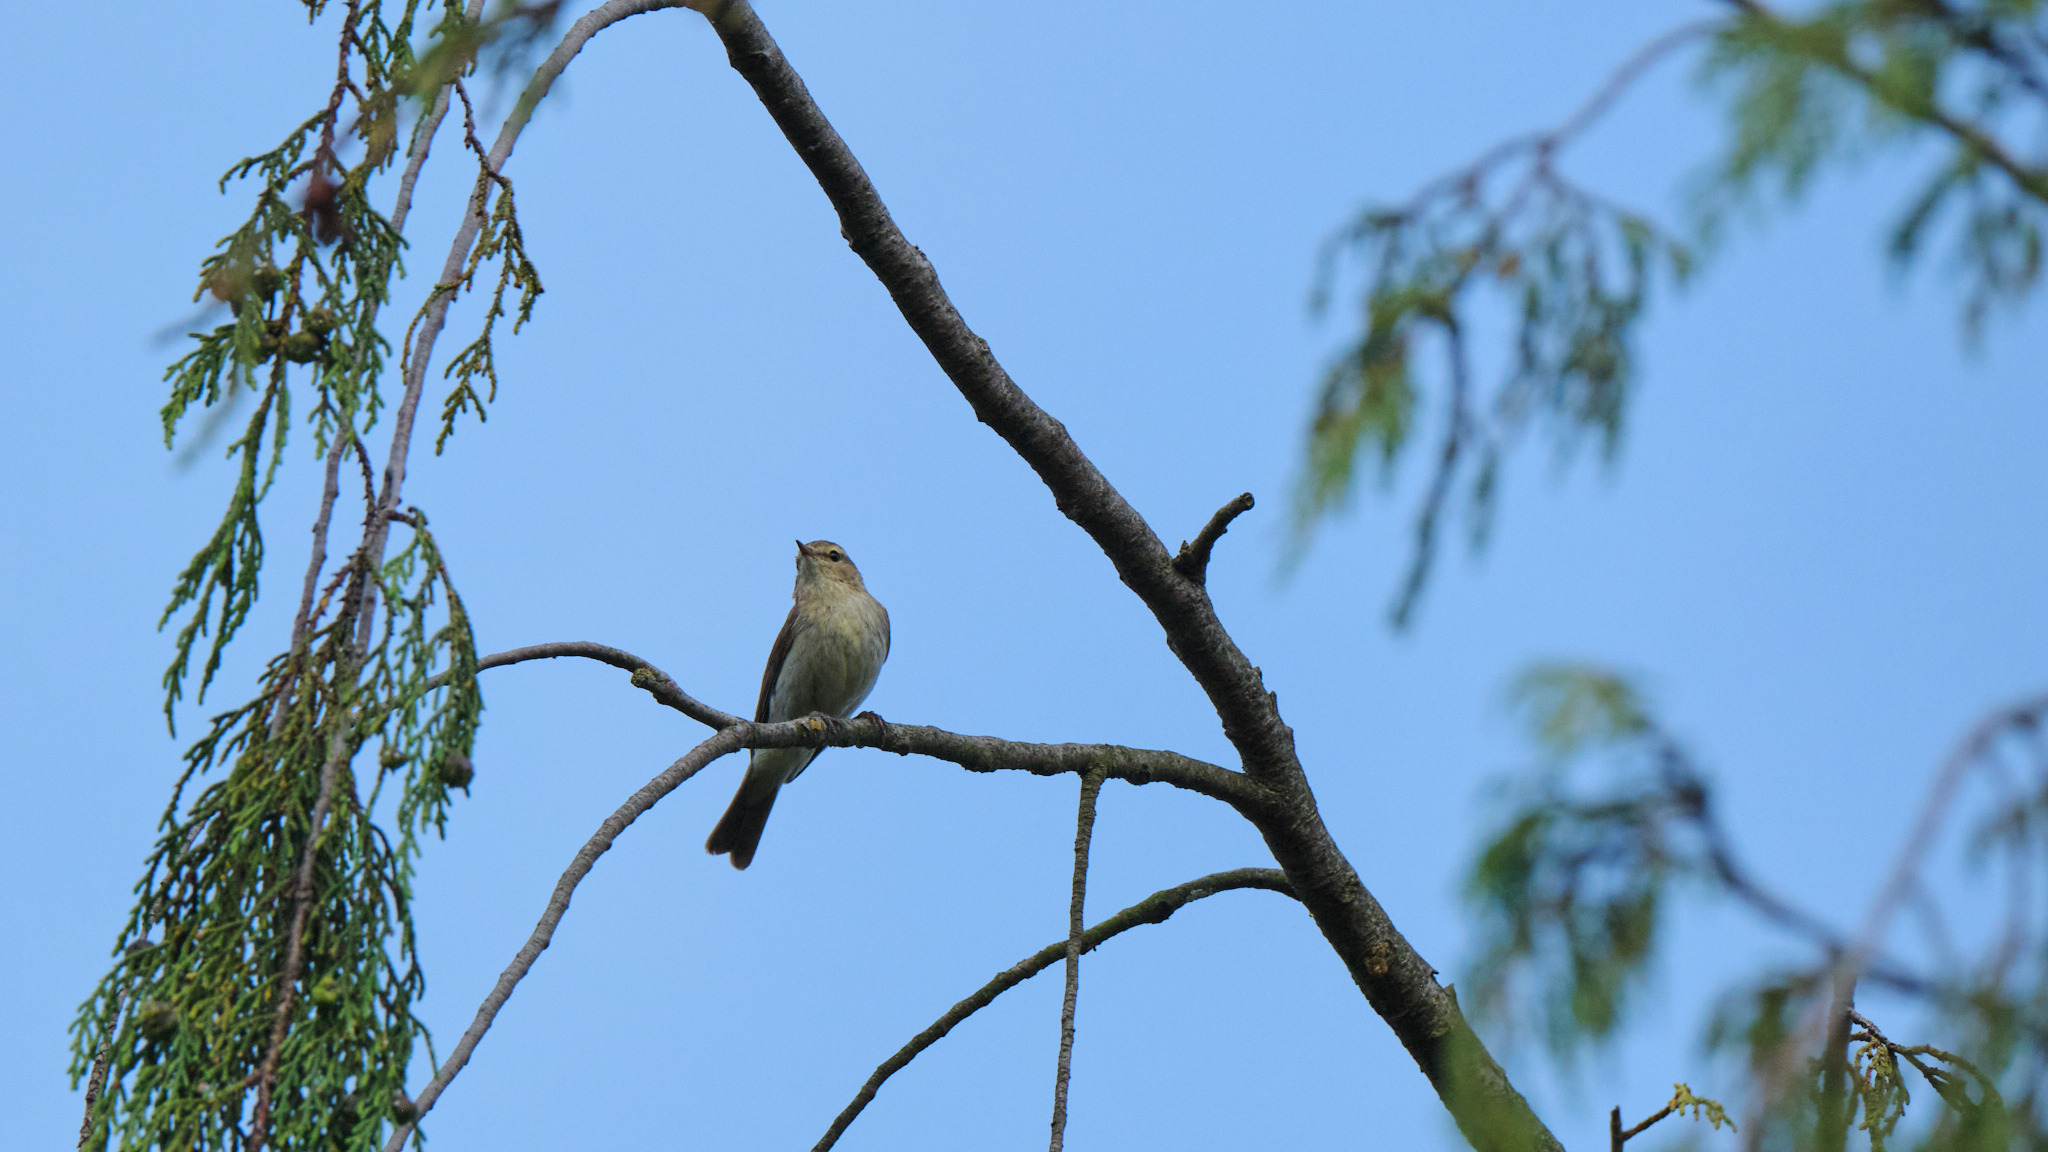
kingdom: Animalia
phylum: Chordata
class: Aves
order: Passeriformes
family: Phylloscopidae
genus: Phylloscopus
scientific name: Phylloscopus collybita
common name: Common chiffchaff
